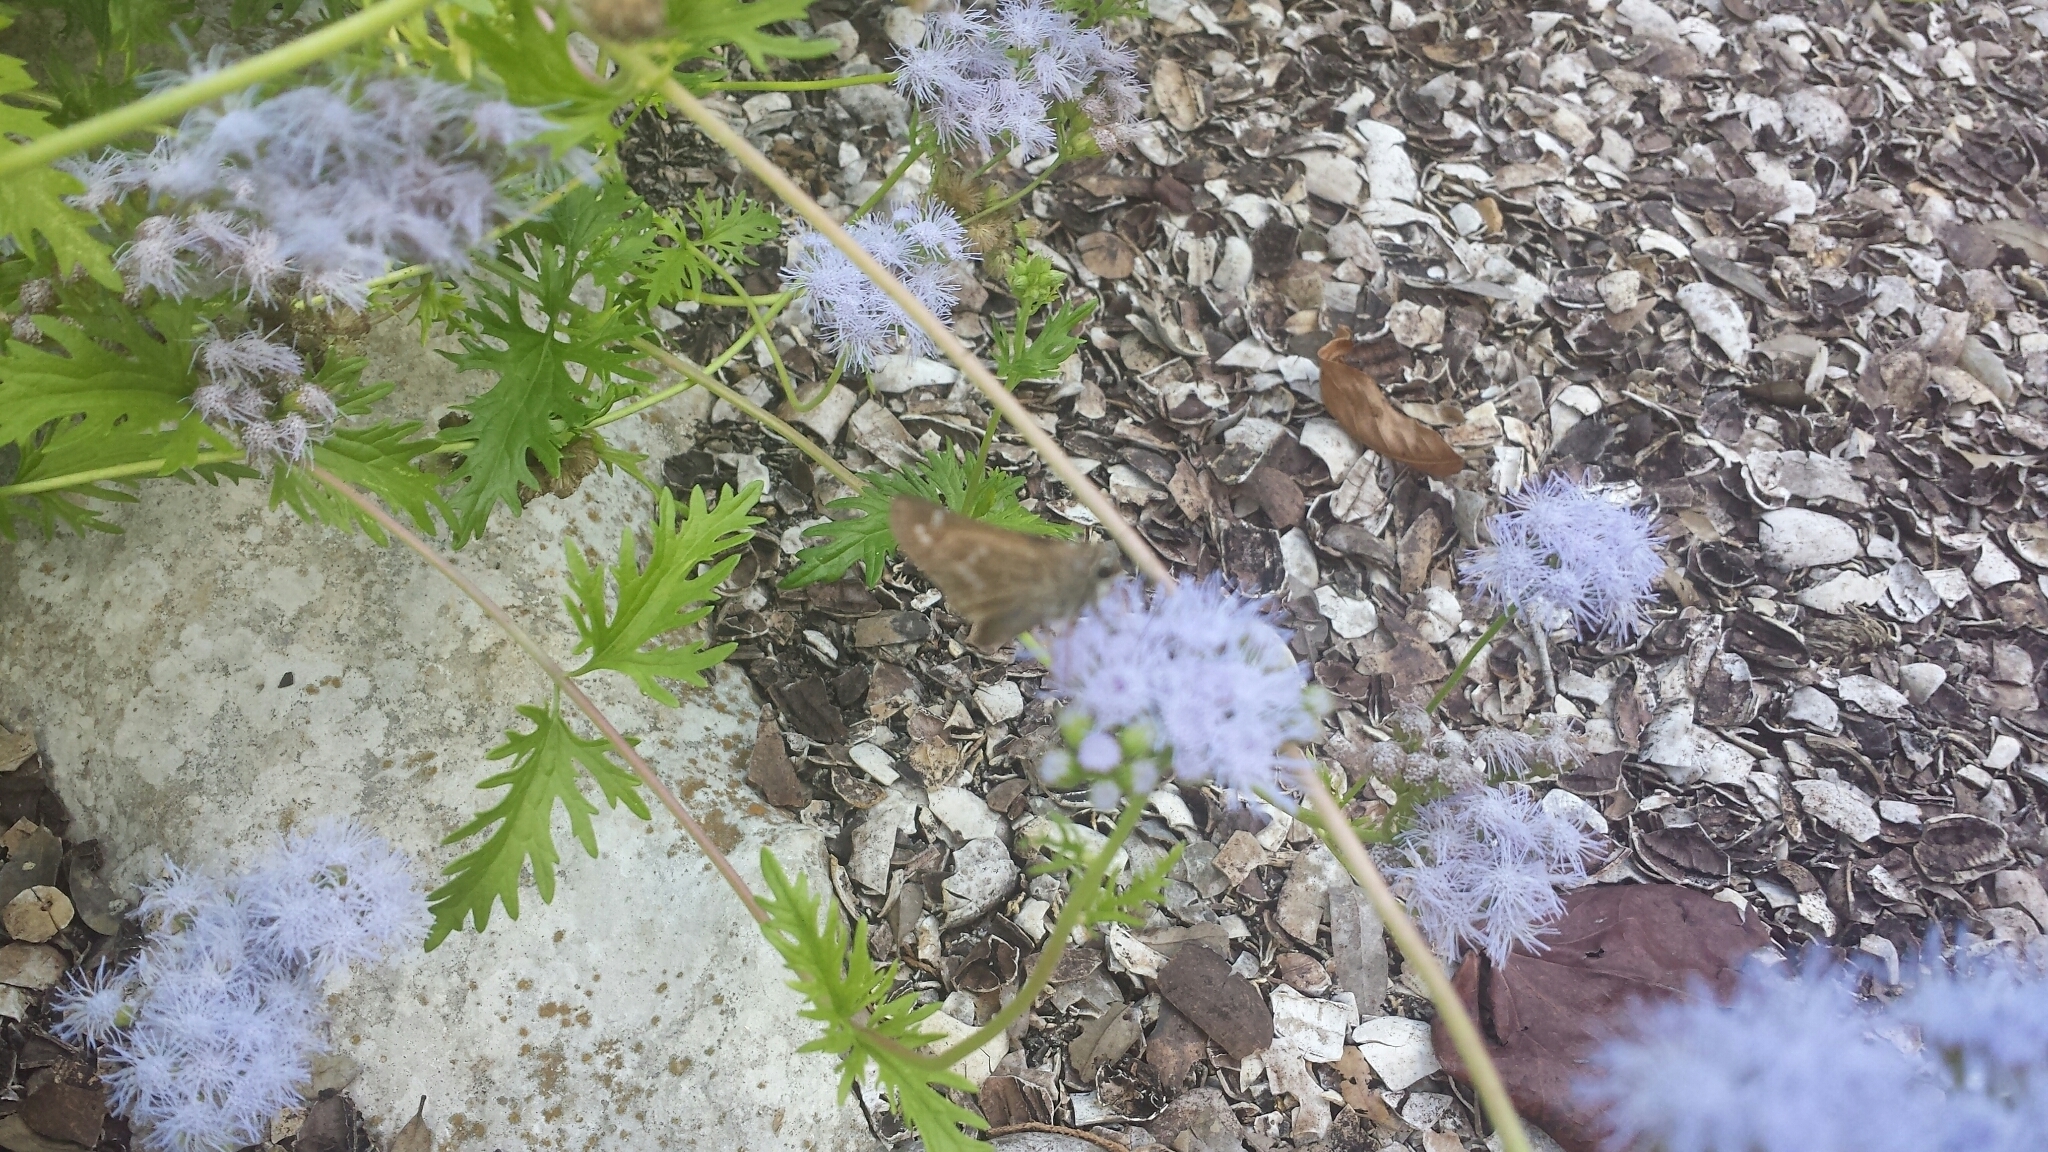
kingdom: Animalia
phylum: Arthropoda
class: Insecta
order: Lepidoptera
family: Hesperiidae
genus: Atalopedes
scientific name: Atalopedes
